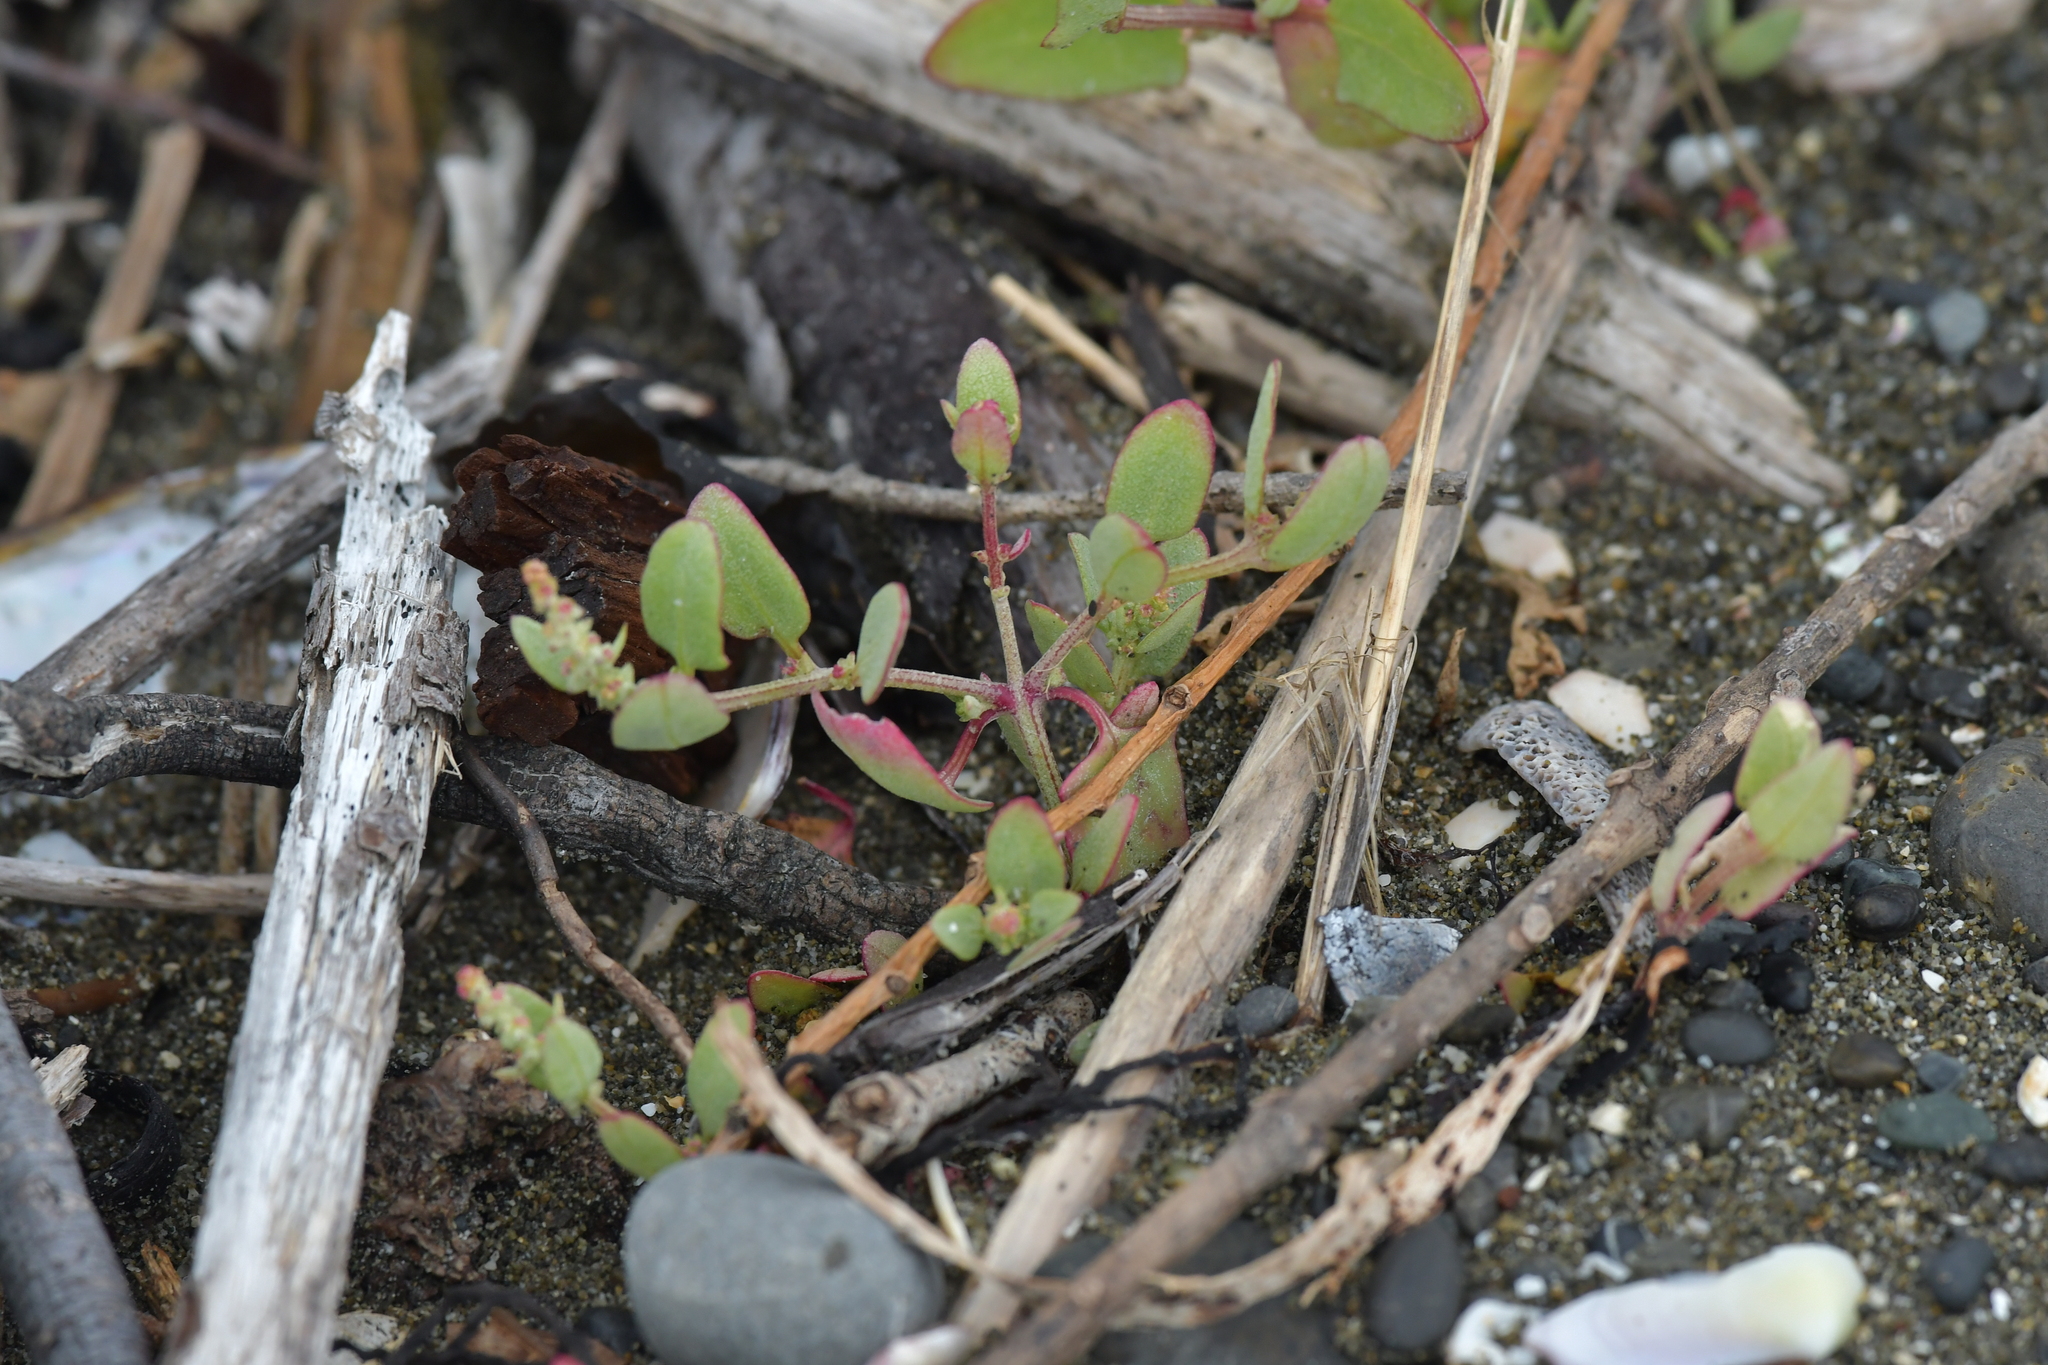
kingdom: Plantae
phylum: Tracheophyta
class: Magnoliopsida
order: Caryophyllales
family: Amaranthaceae
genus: Atriplex
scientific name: Atriplex prostrata
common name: Spear-leaved orache
